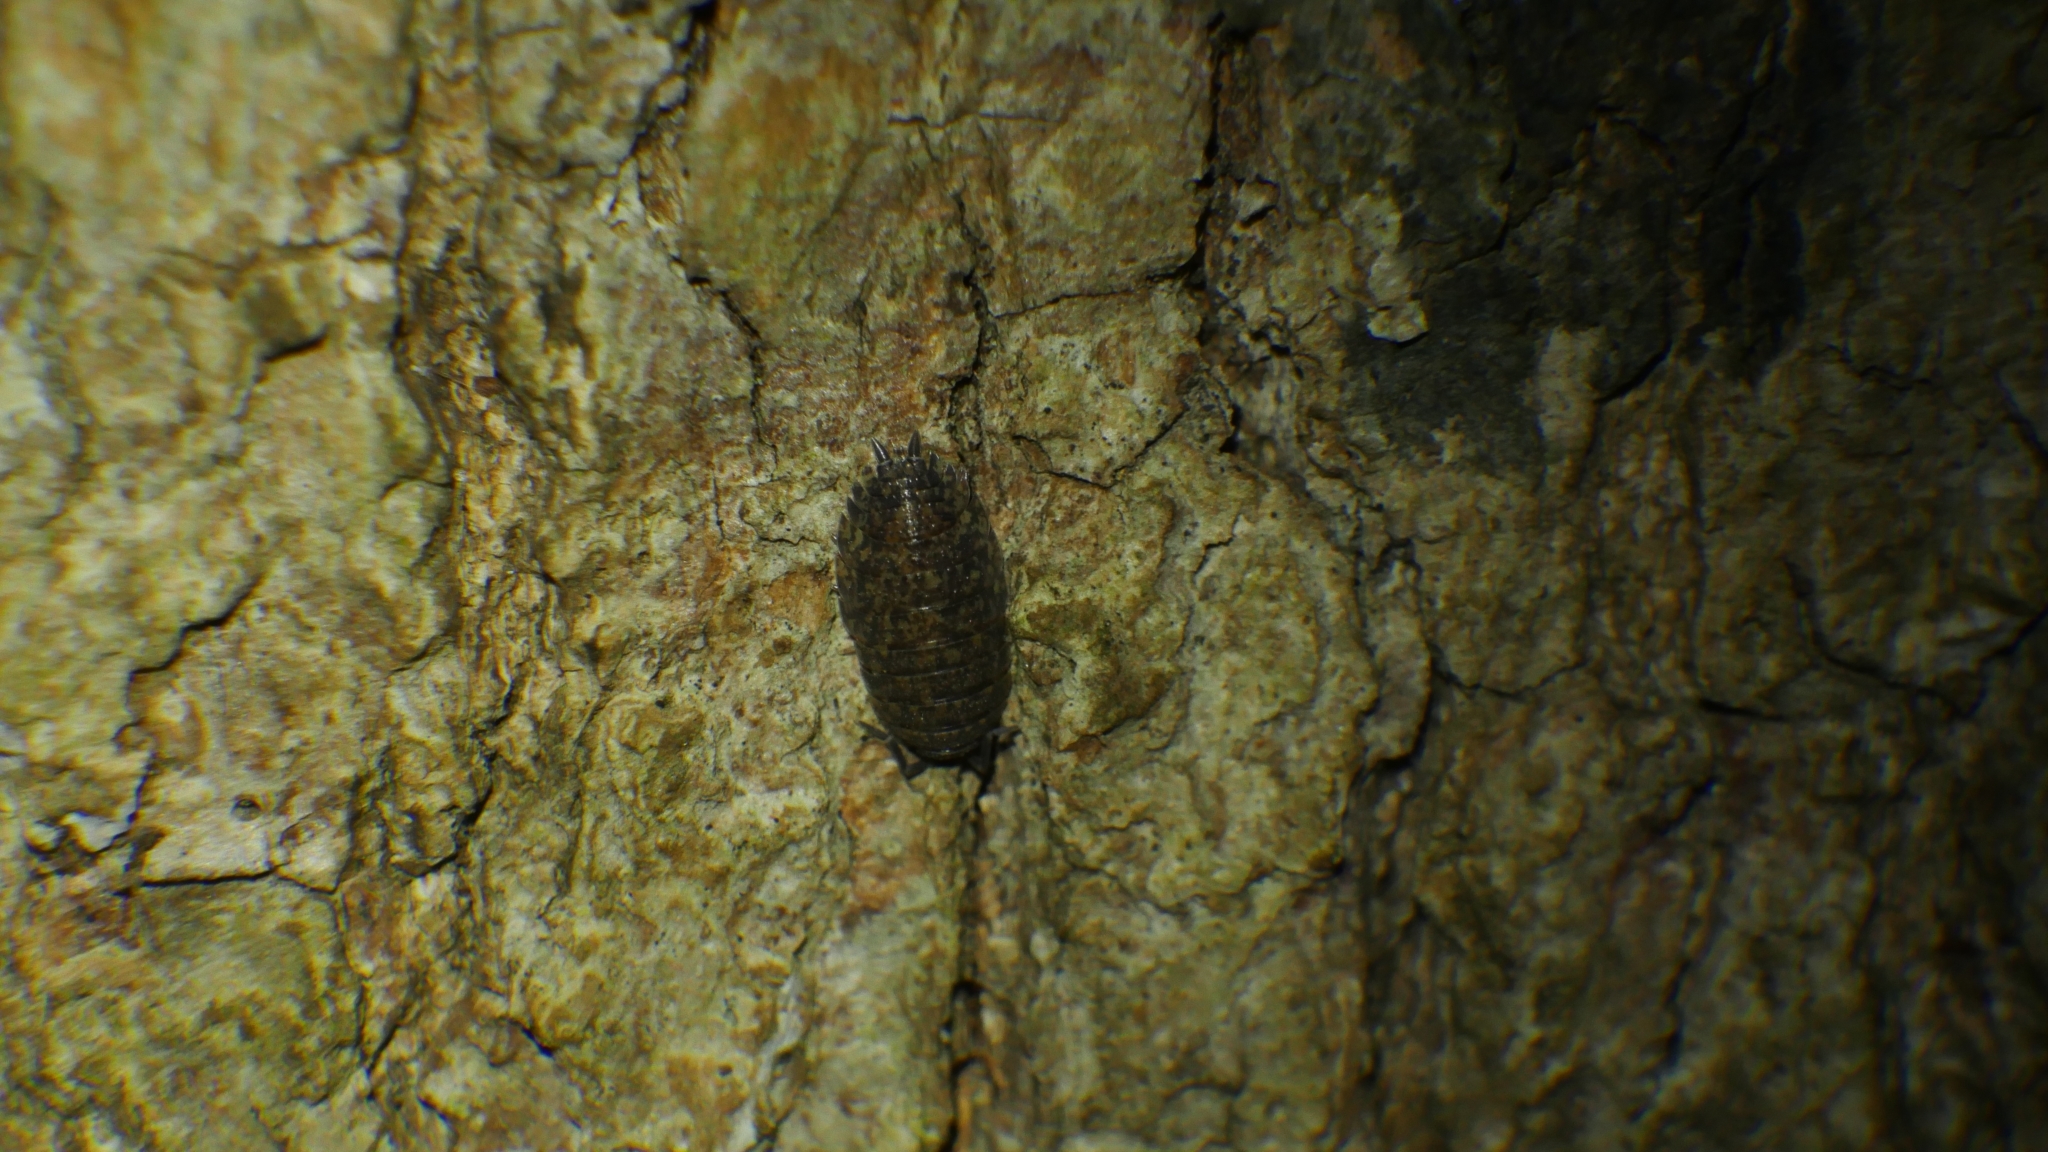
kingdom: Animalia
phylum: Arthropoda
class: Malacostraca
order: Isopoda
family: Porcellionidae
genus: Porcellio
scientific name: Porcellio scaber
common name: Common rough woodlouse
